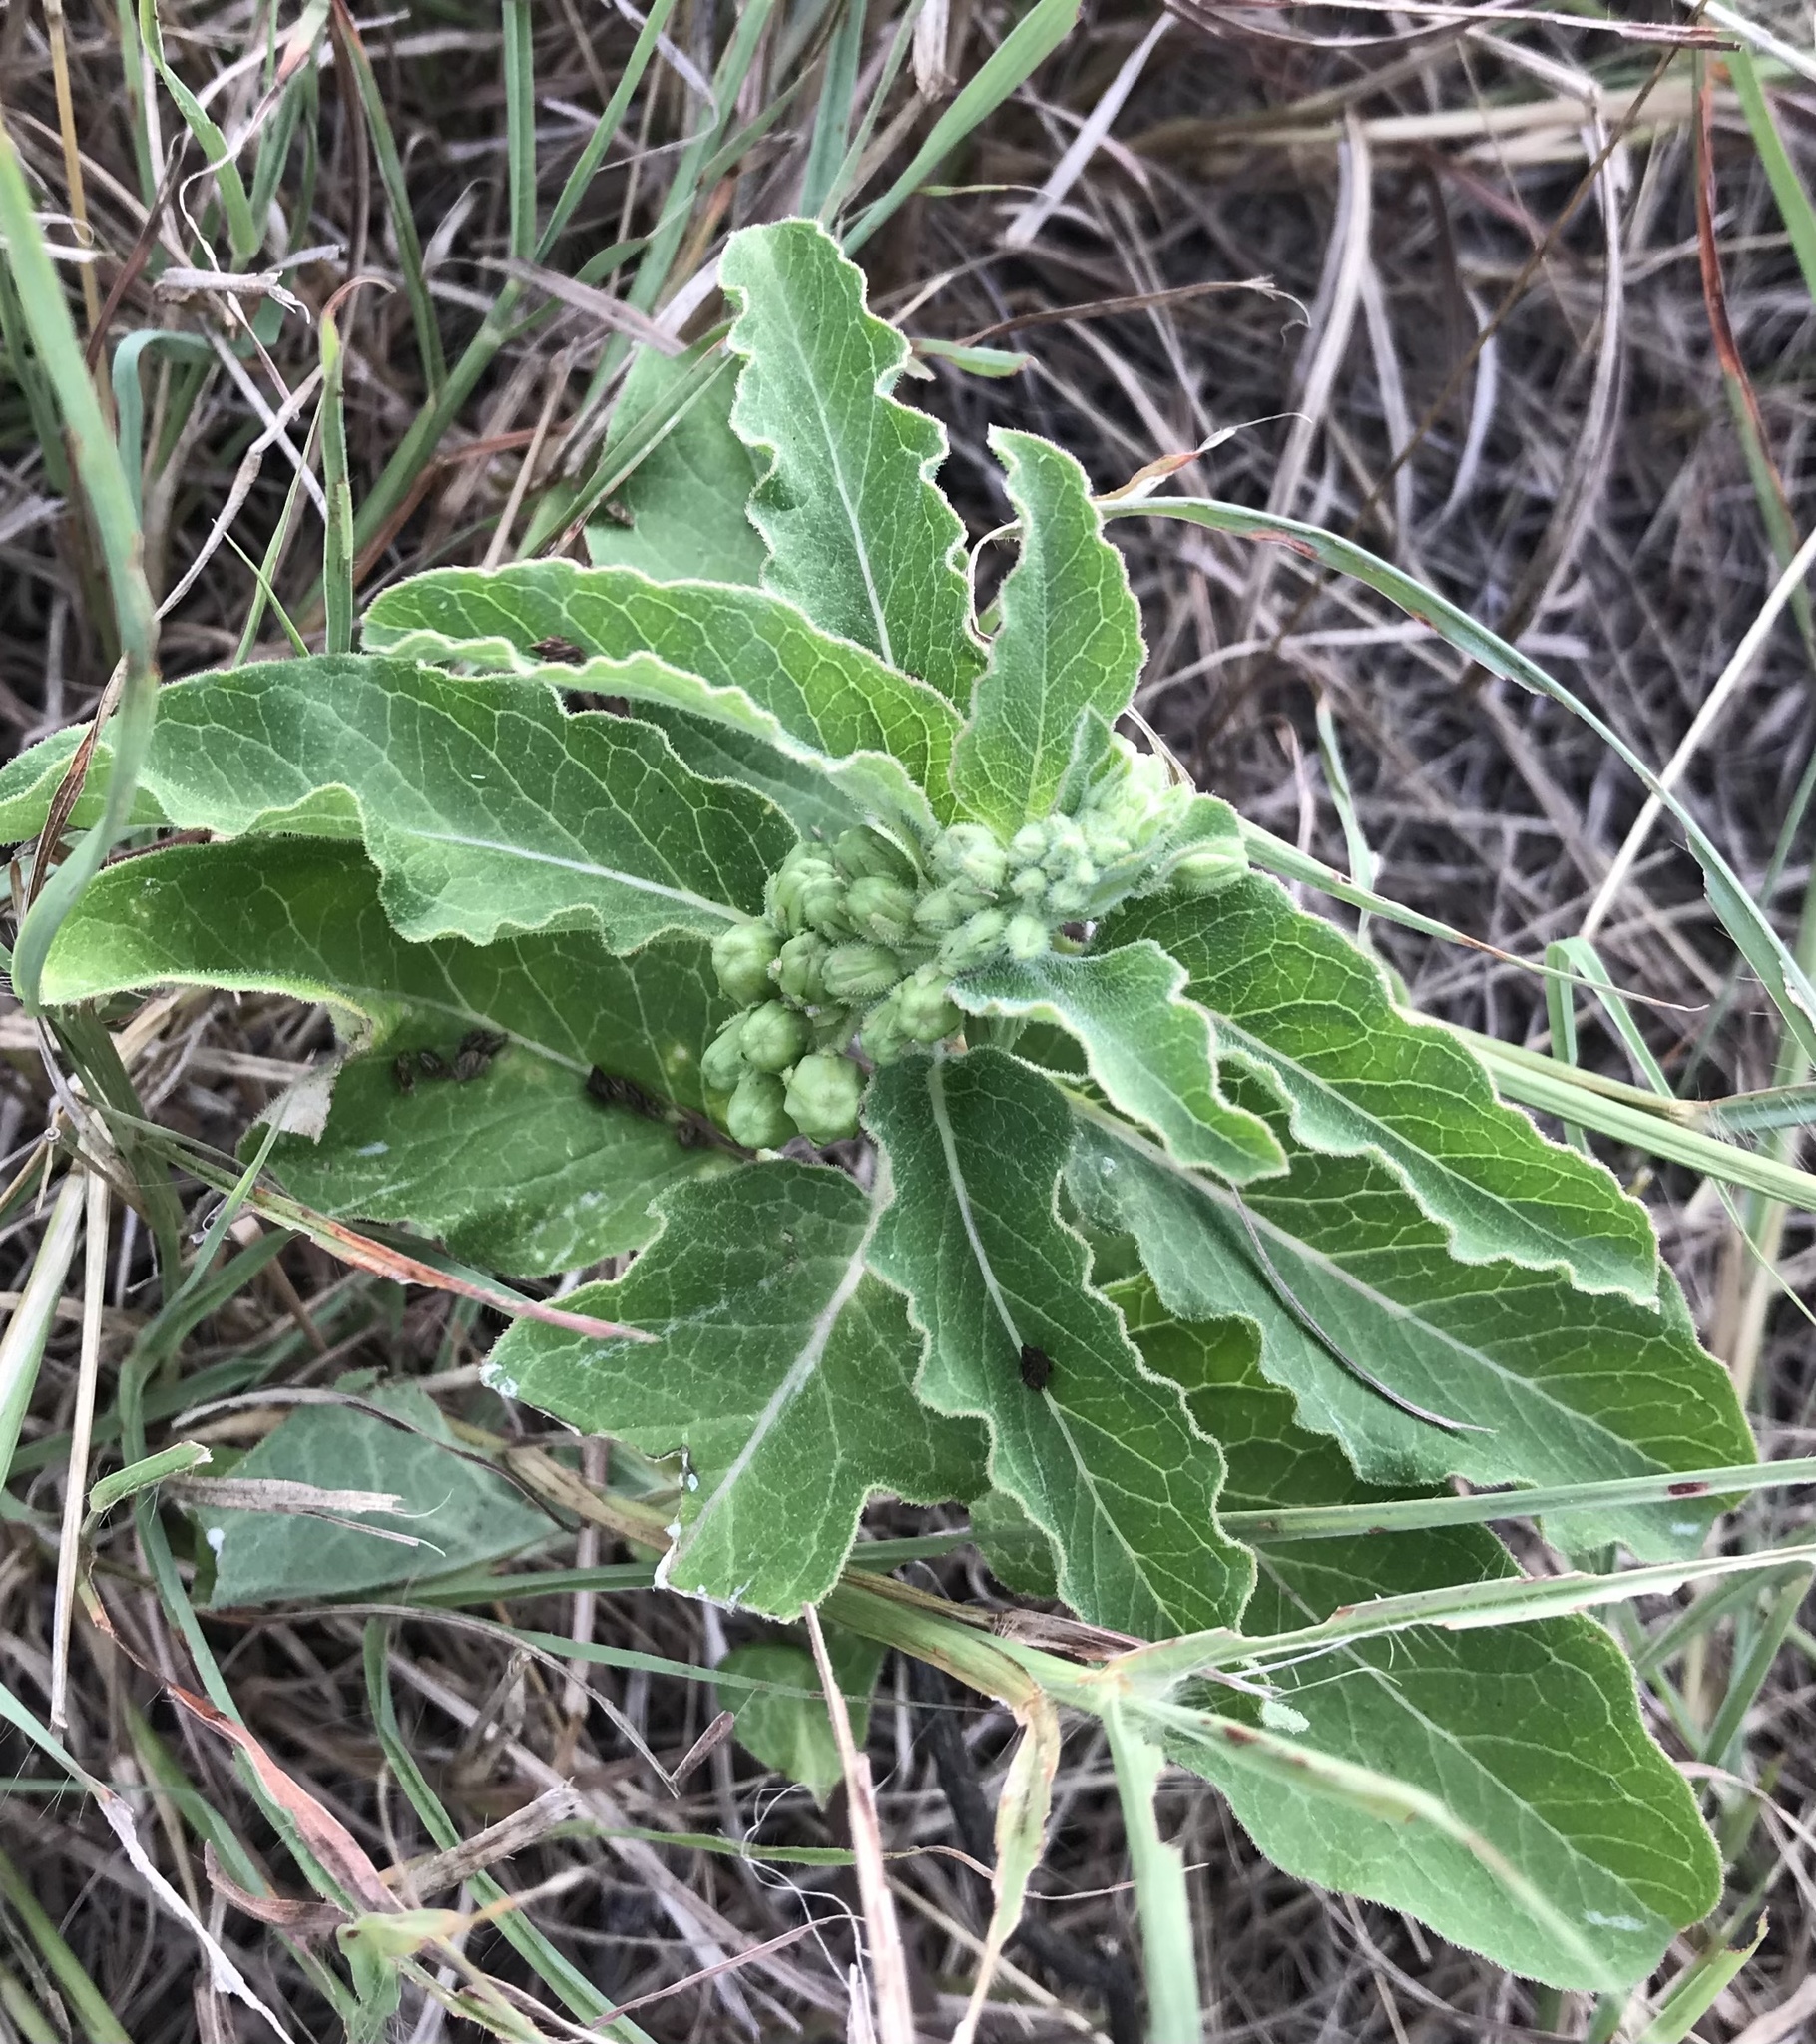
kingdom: Plantae
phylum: Tracheophyta
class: Magnoliopsida
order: Gentianales
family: Apocynaceae
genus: Asclepias
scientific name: Asclepias oenotheroides
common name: Zizotes milkweed
